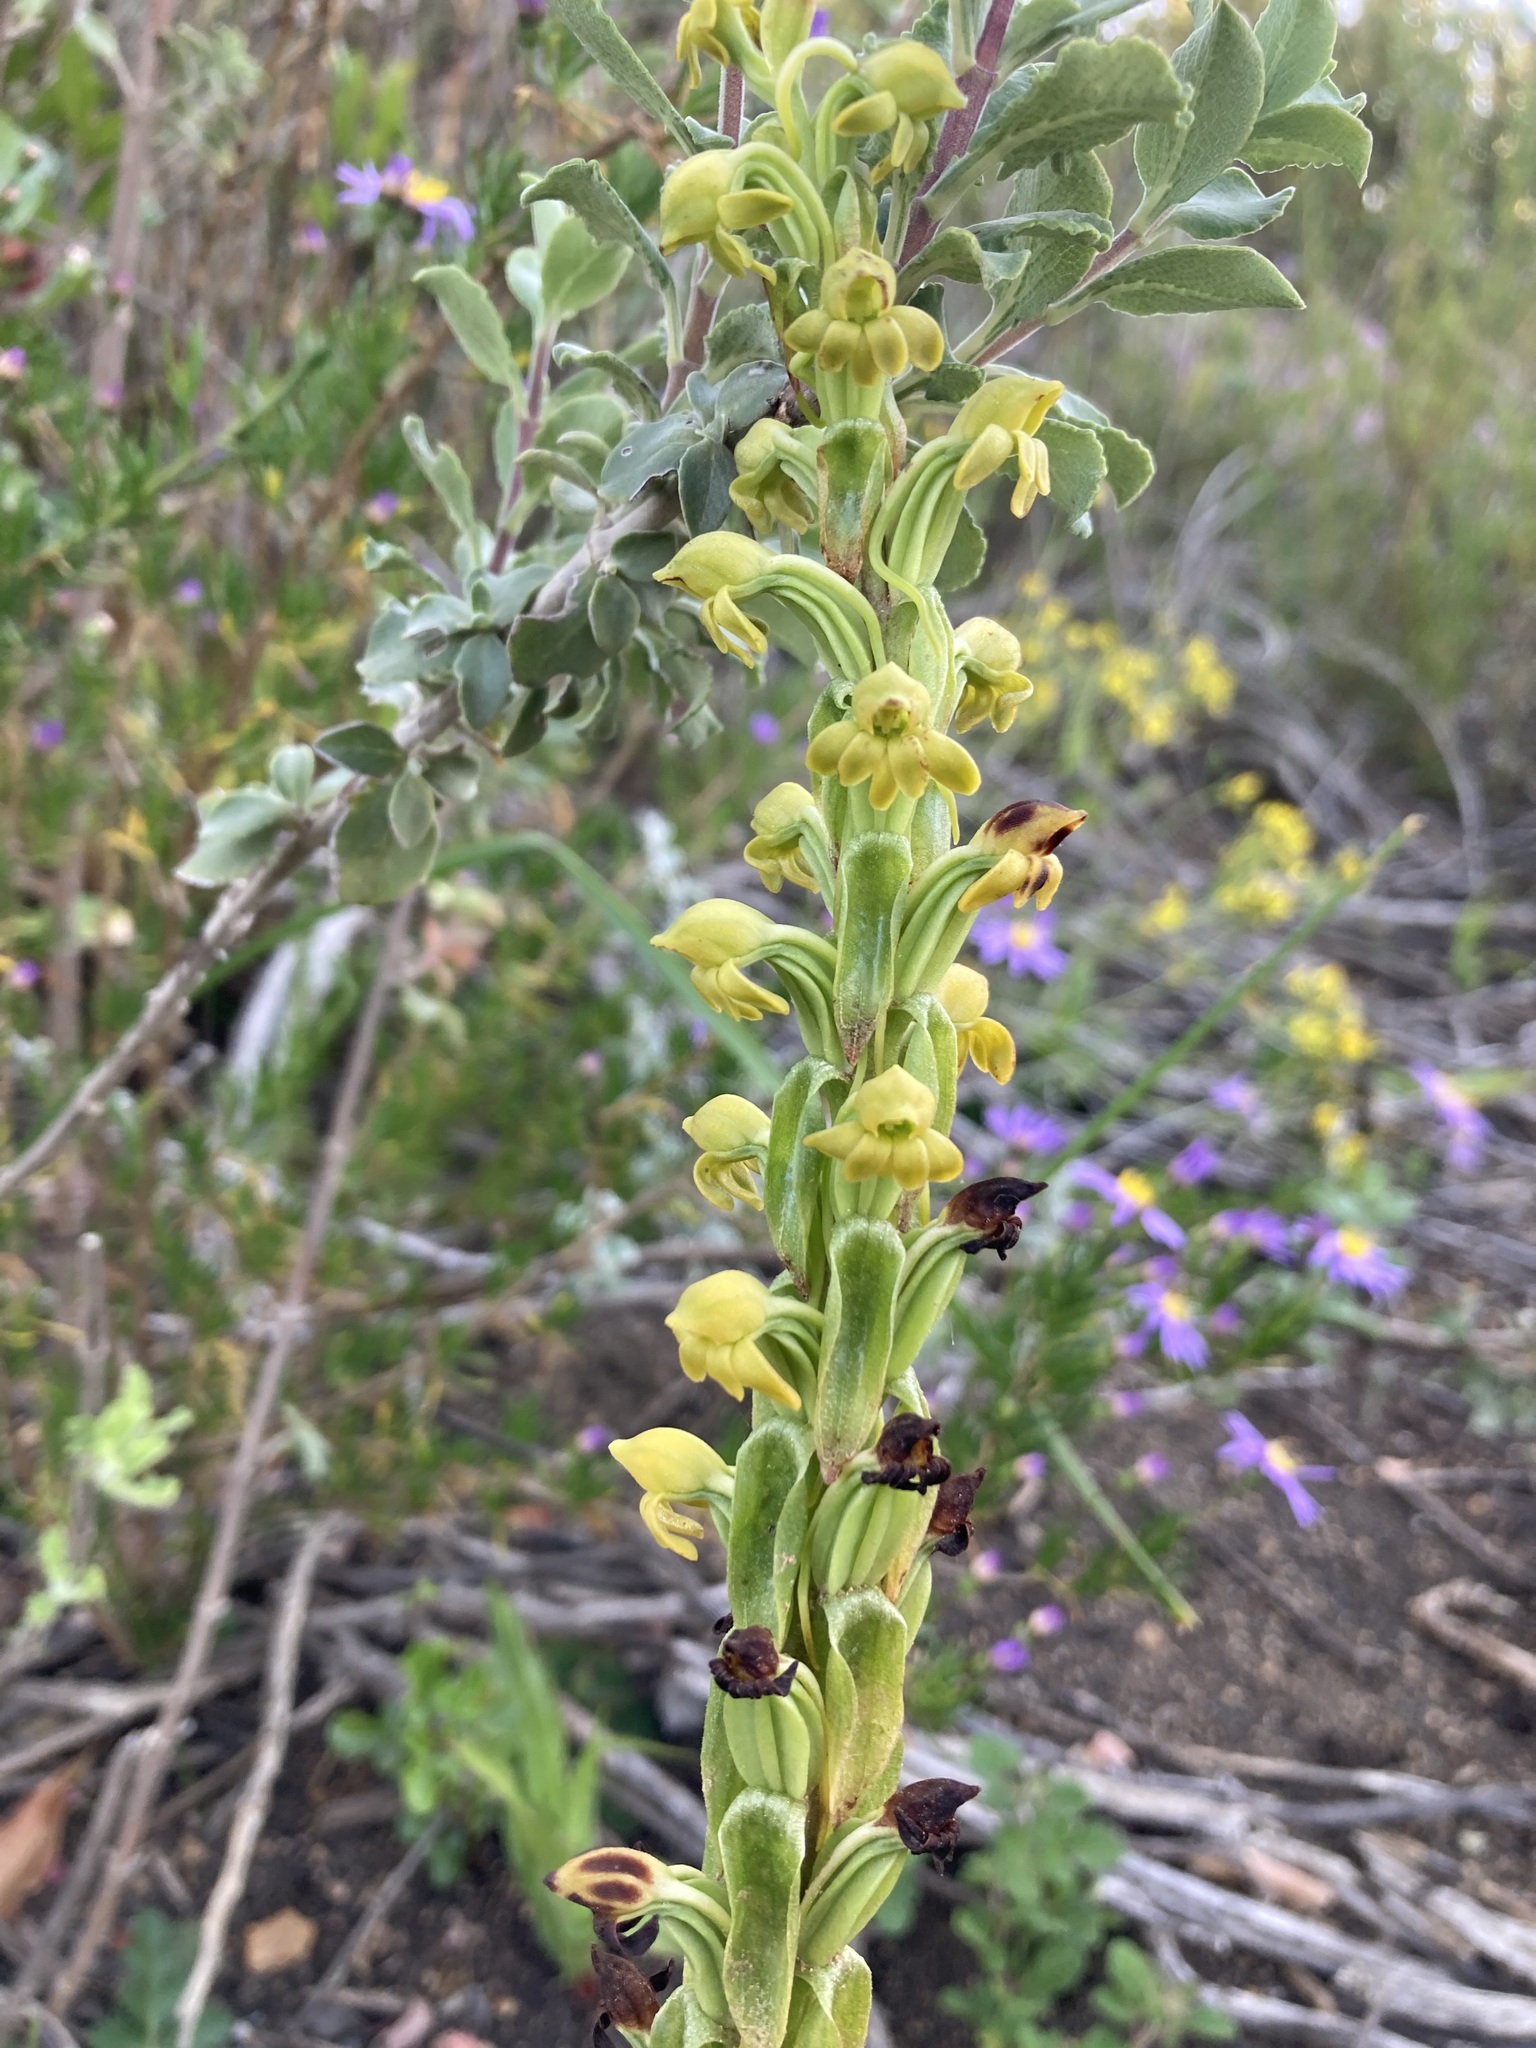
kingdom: Plantae
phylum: Tracheophyta
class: Liliopsida
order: Asparagales
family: Orchidaceae
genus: Satyrium
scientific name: Satyrium bicorne
